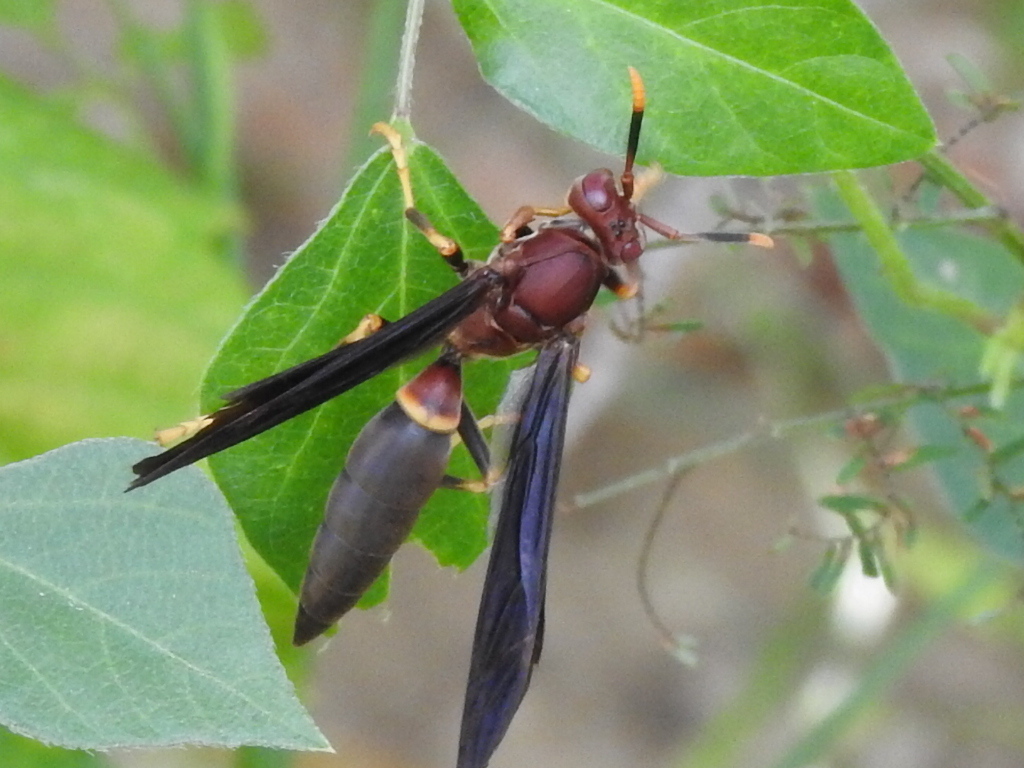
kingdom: Animalia
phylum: Arthropoda
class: Insecta
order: Hymenoptera
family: Eumenidae
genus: Polistes
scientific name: Polistes annularis
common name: Ringed paper wasp
